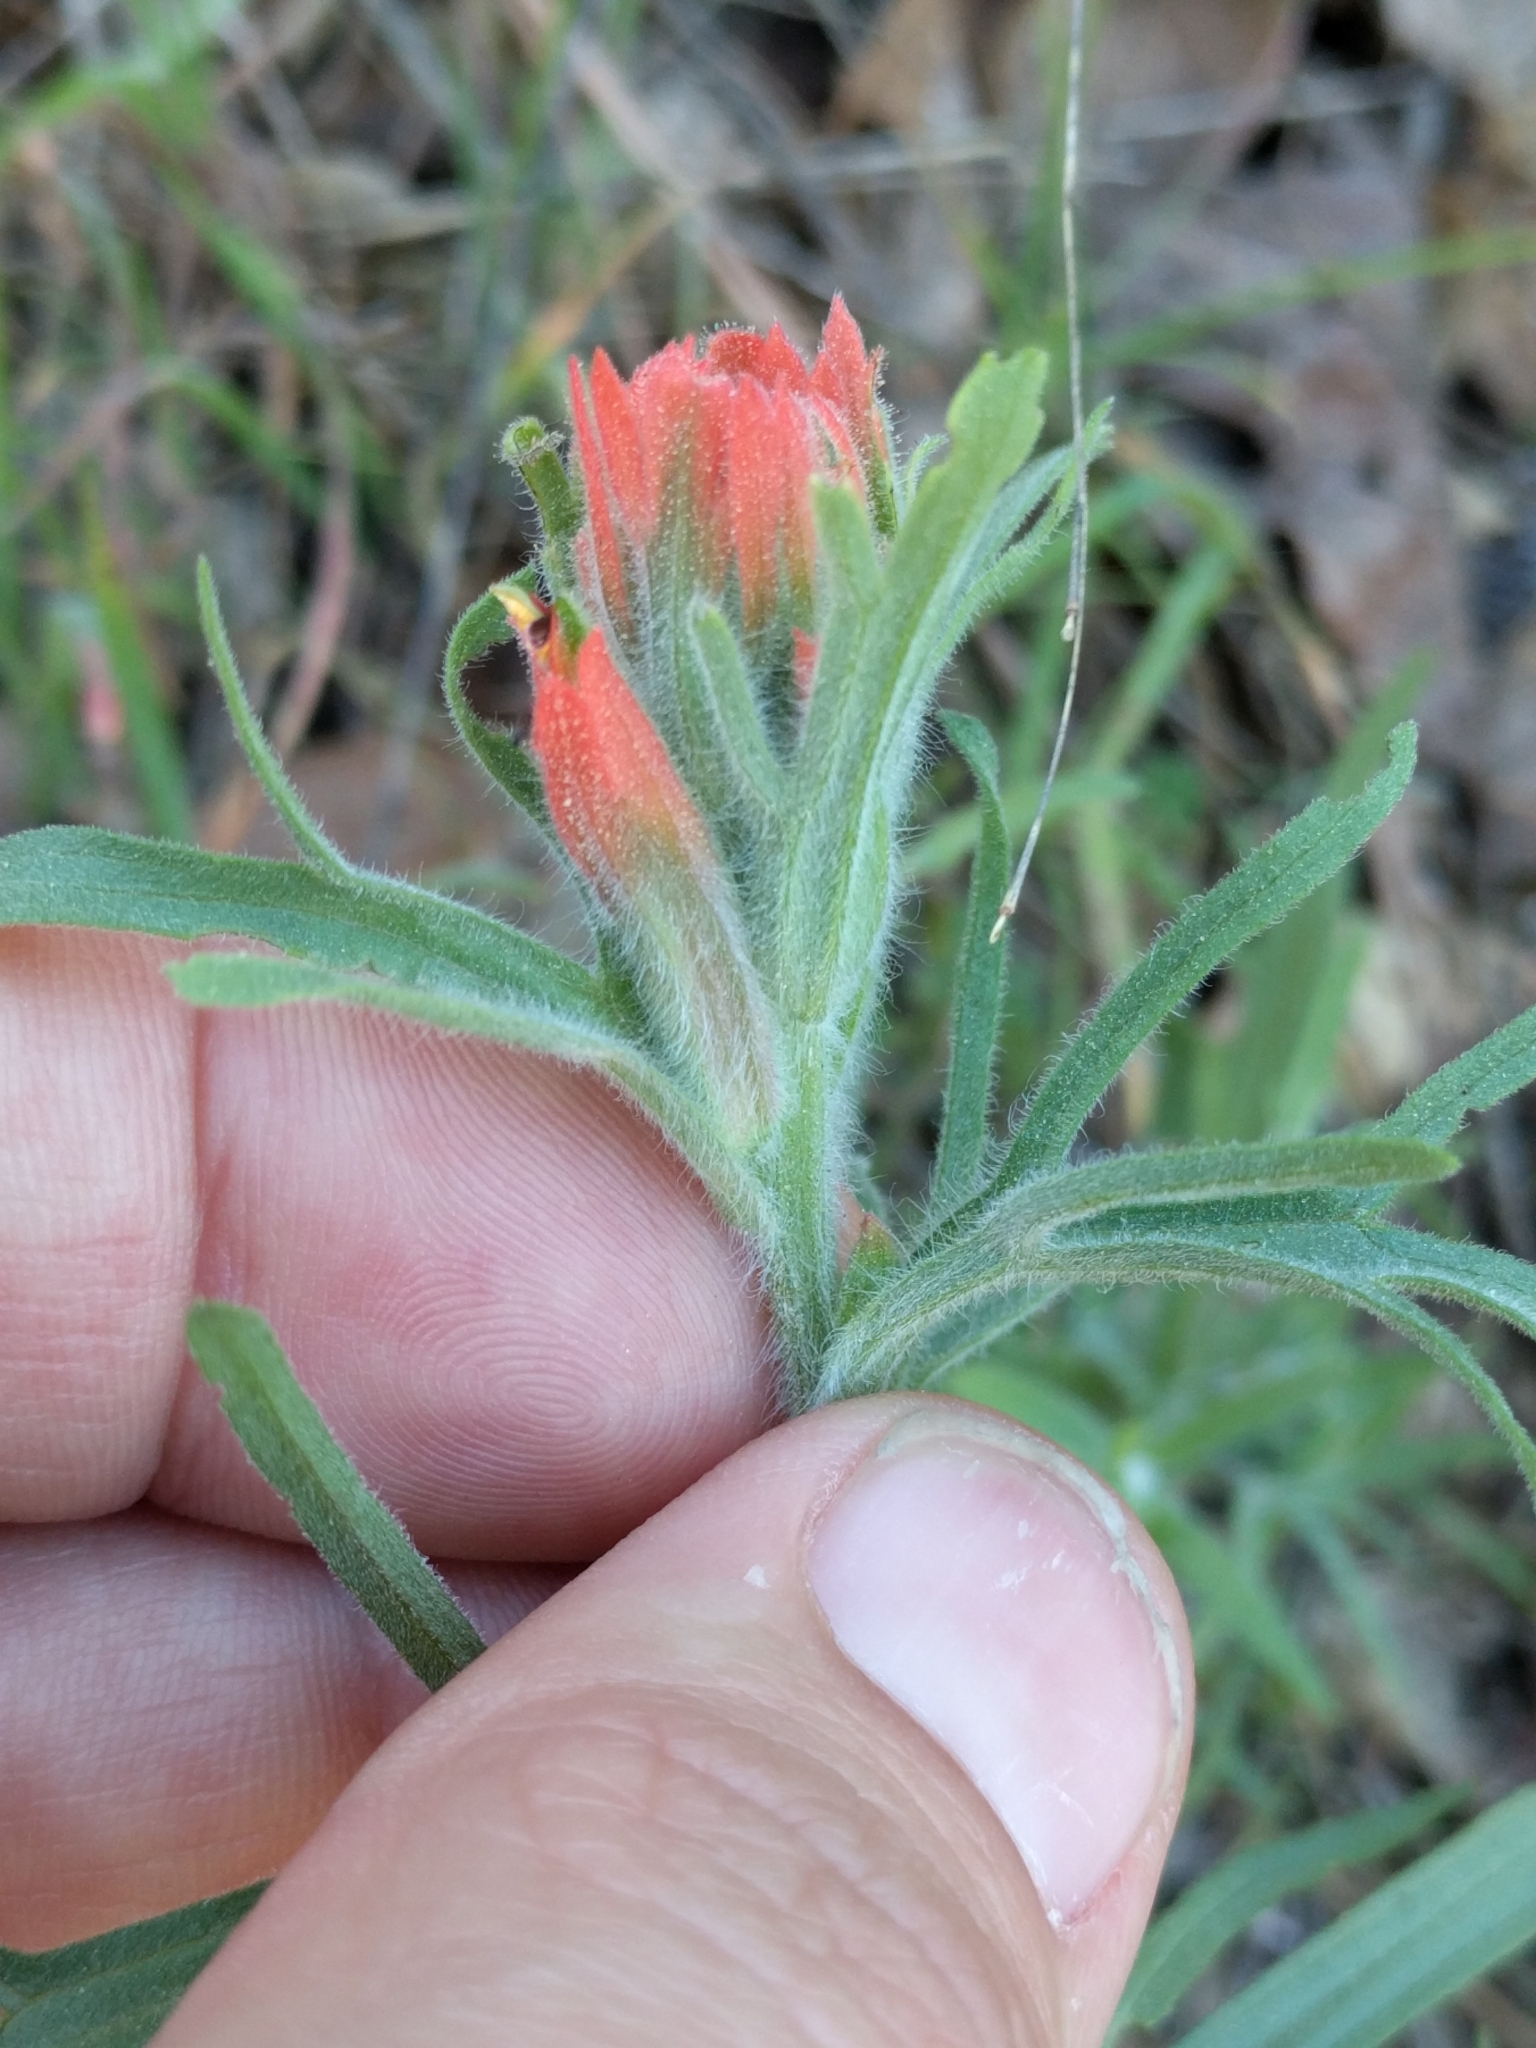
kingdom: Plantae
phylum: Tracheophyta
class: Magnoliopsida
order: Lamiales
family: Orobanchaceae
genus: Castilleja
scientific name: Castilleja affinis
